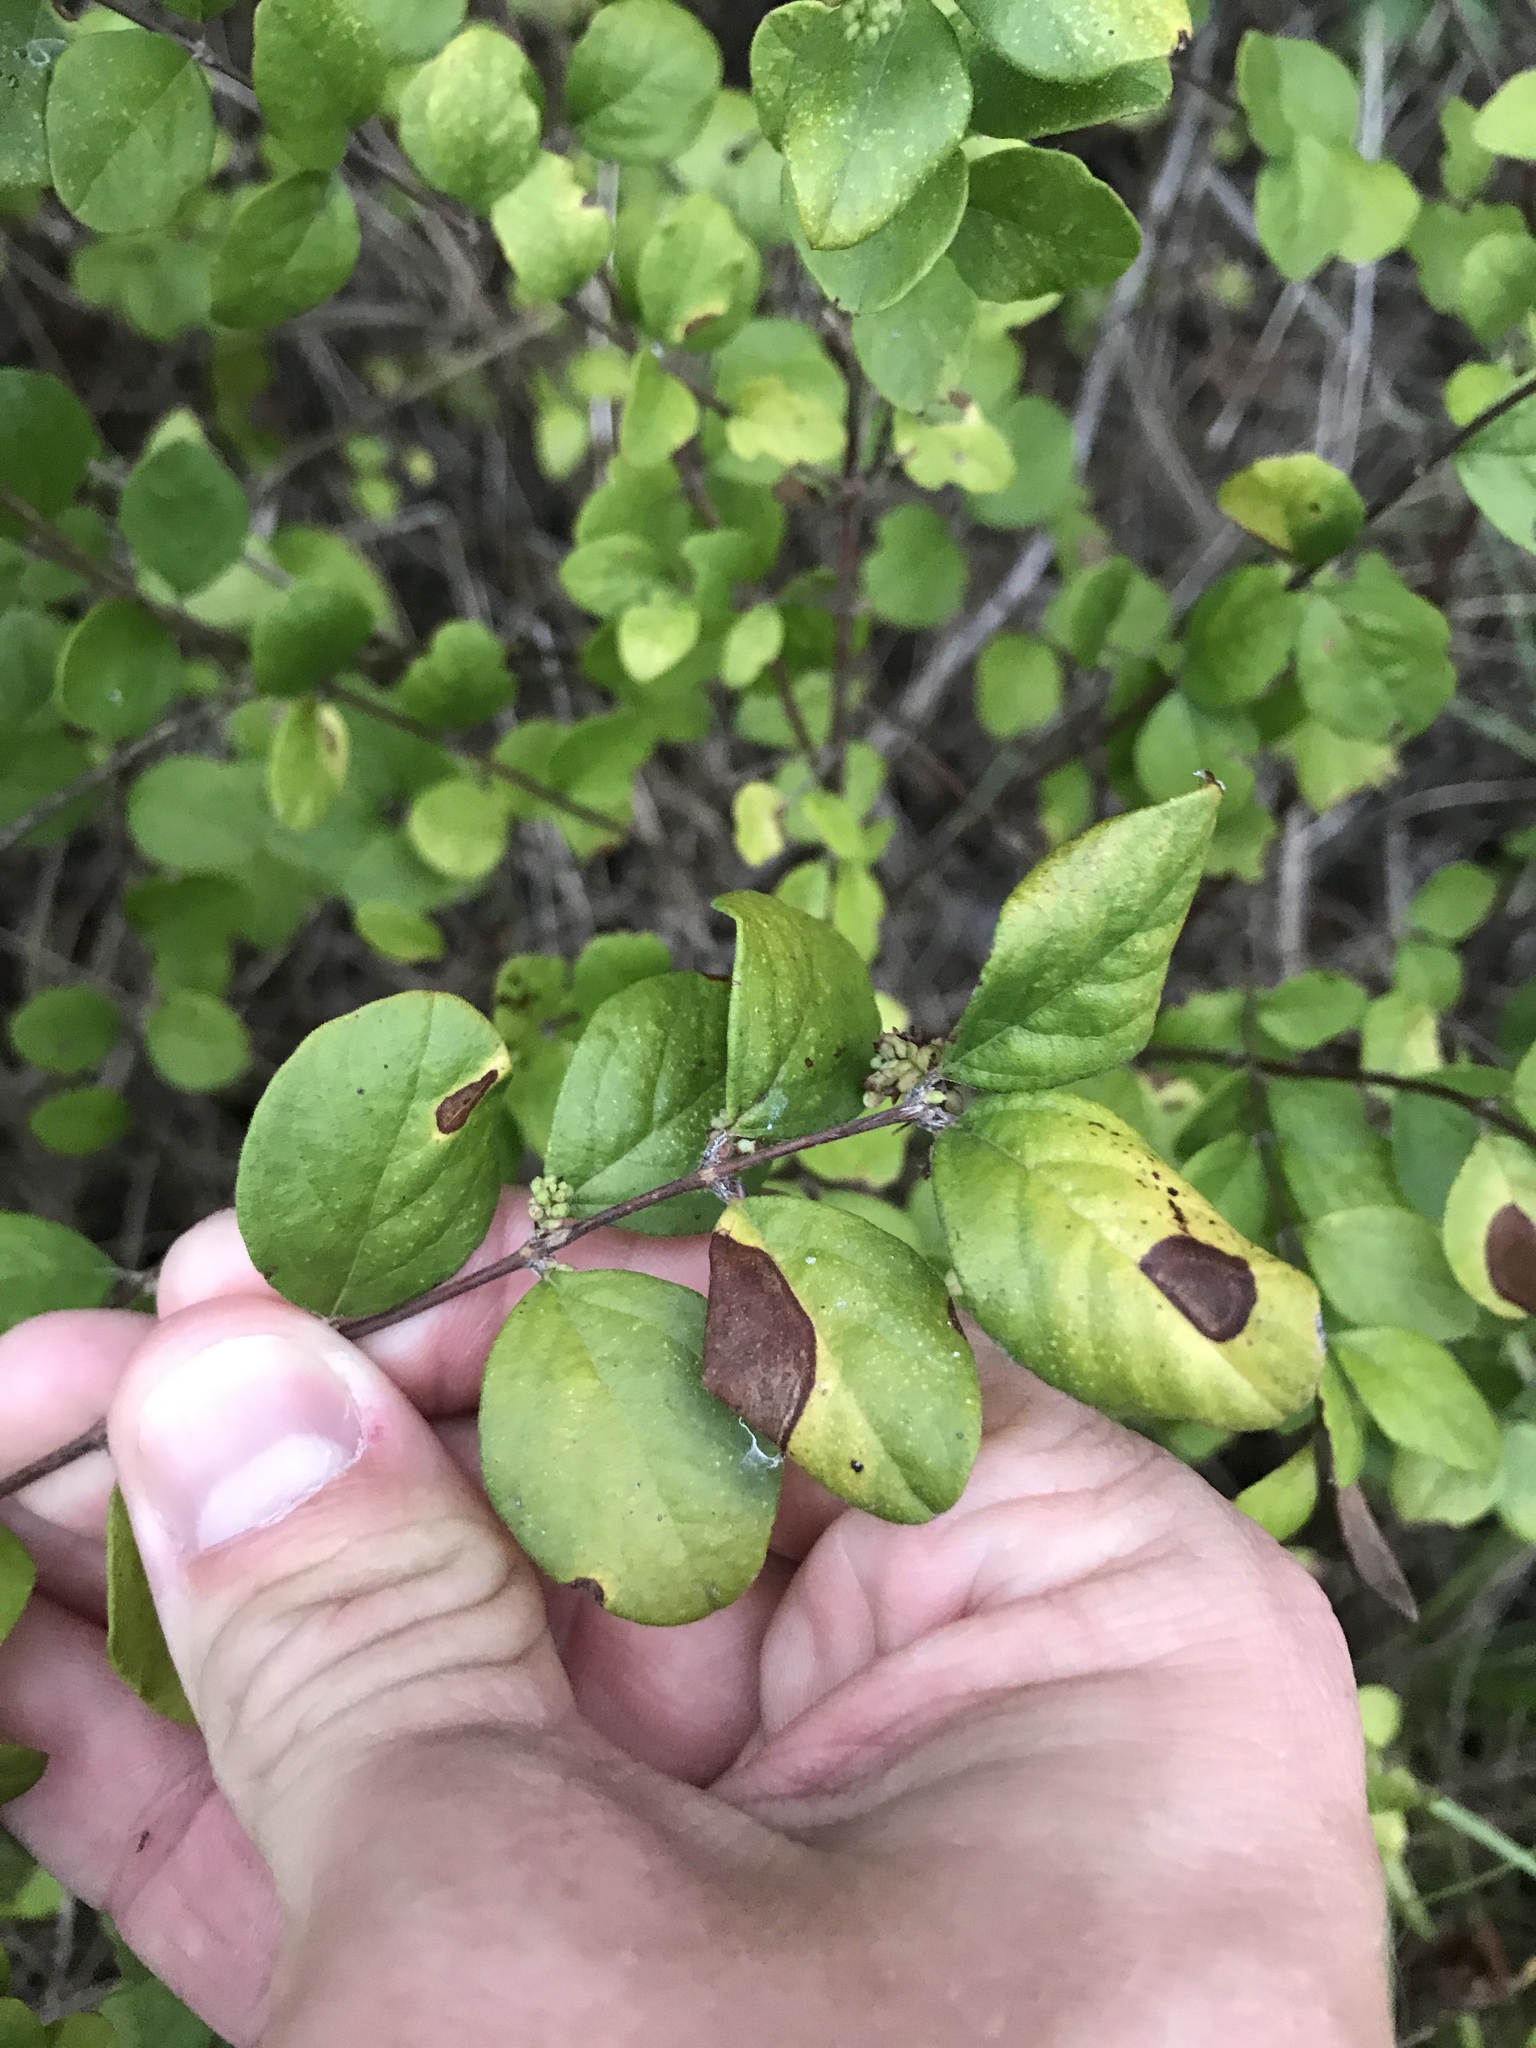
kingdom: Plantae
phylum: Tracheophyta
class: Magnoliopsida
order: Dipsacales
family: Caprifoliaceae
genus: Symphoricarpos
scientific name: Symphoricarpos orbiculatus
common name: Coralberry
